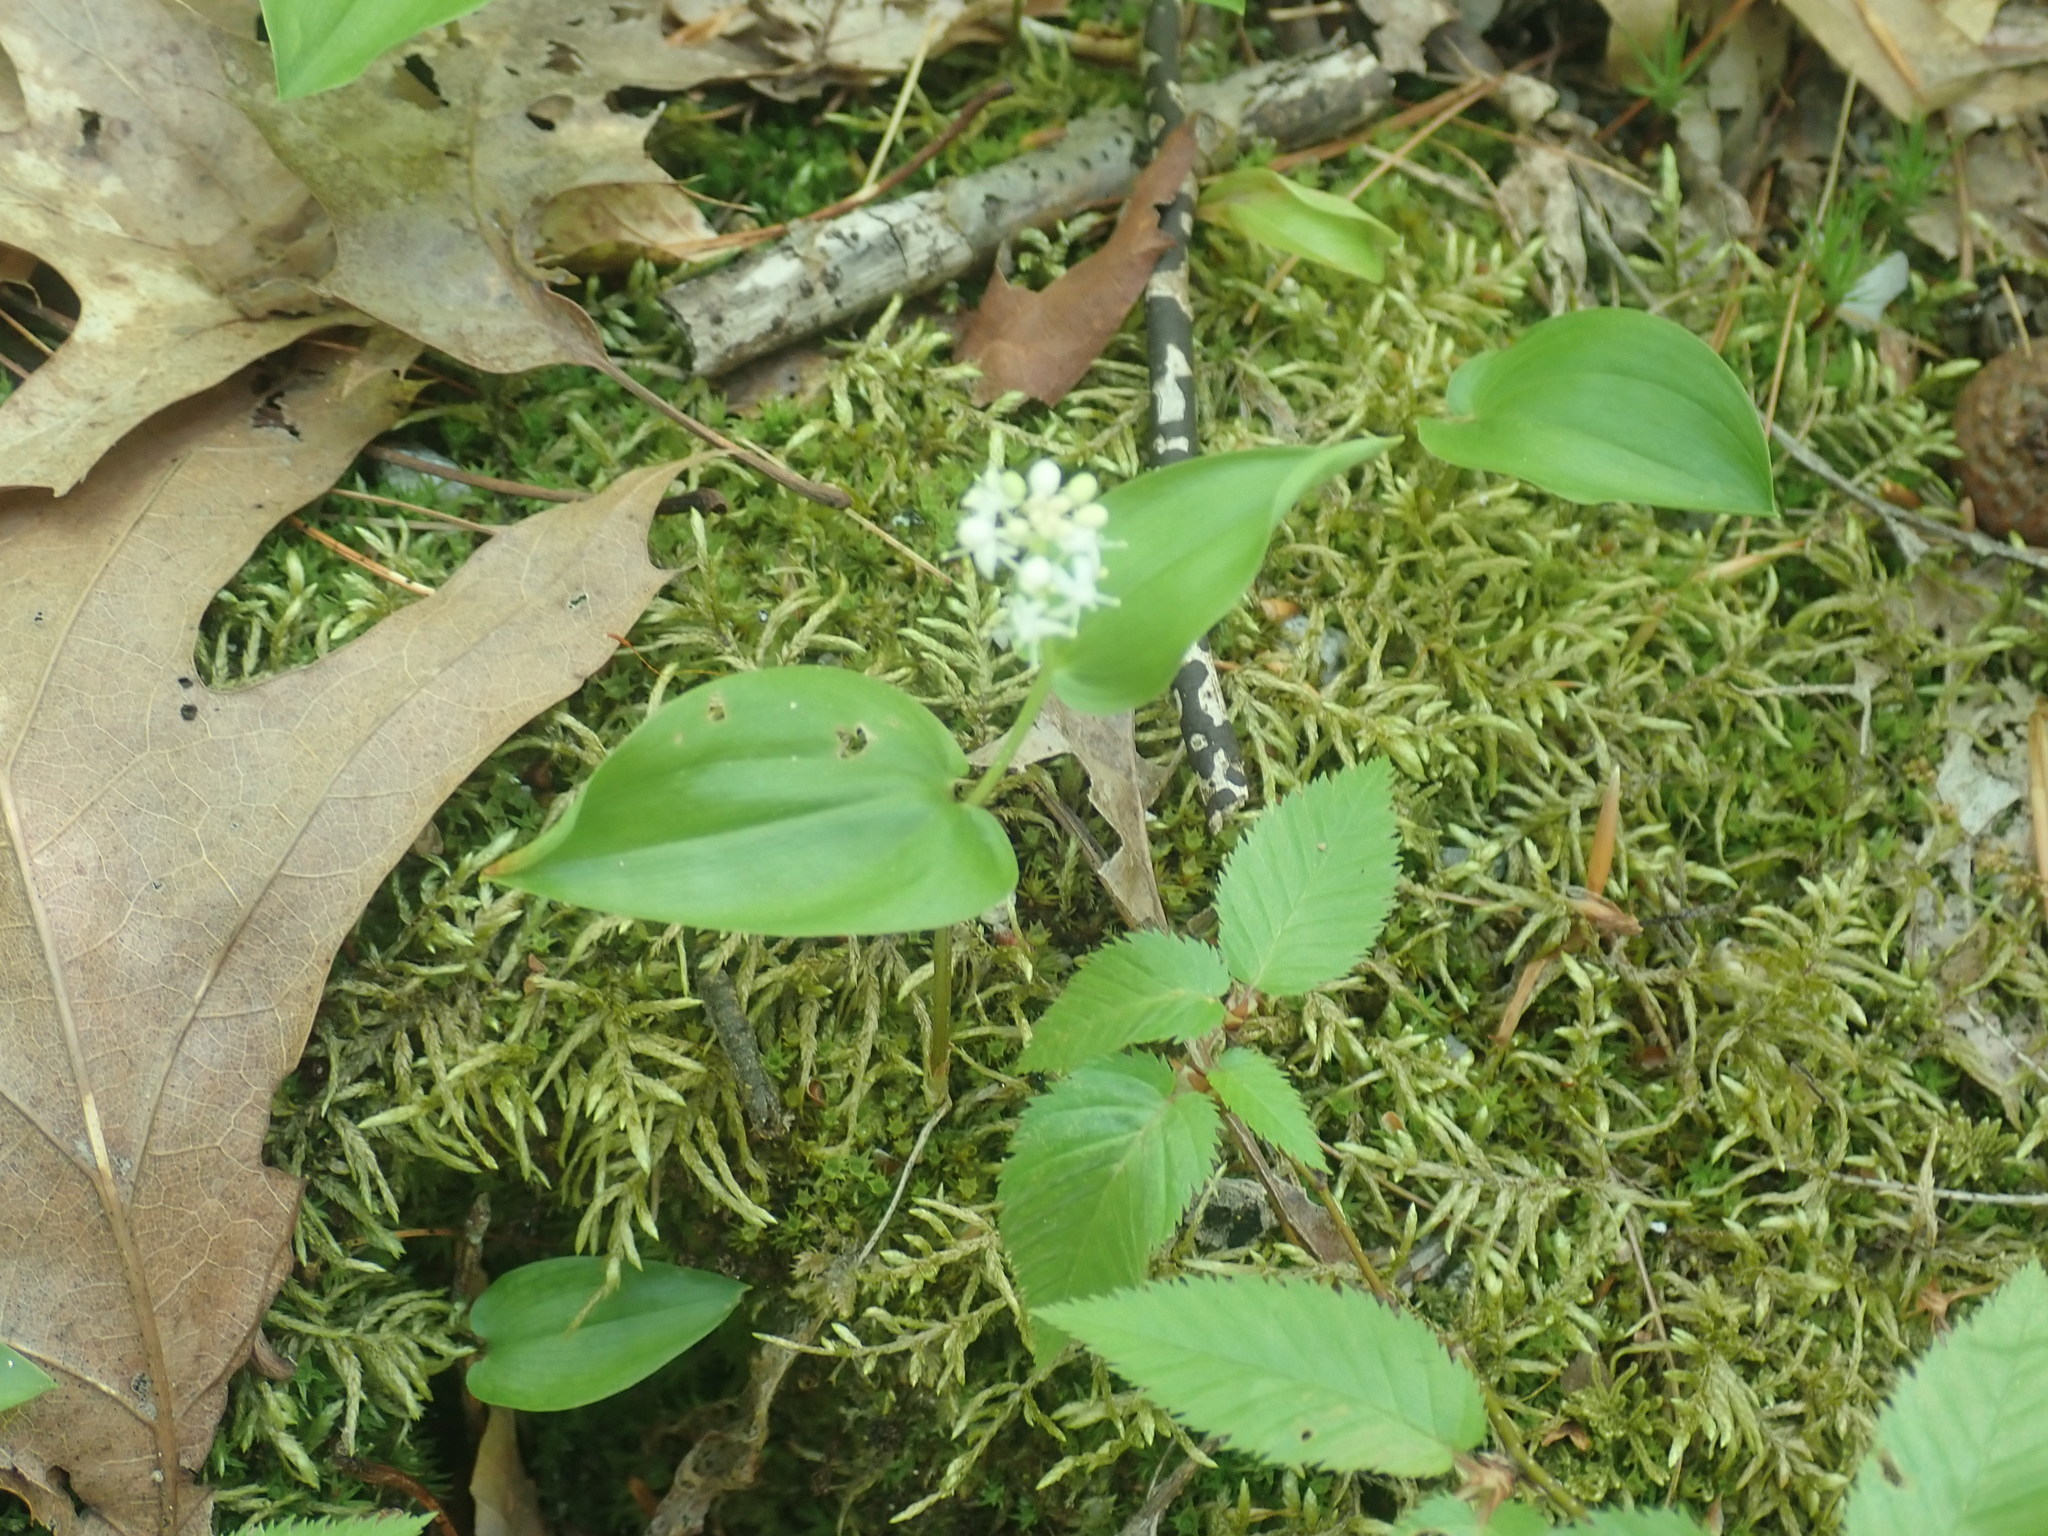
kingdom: Plantae
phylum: Tracheophyta
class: Liliopsida
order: Asparagales
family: Asparagaceae
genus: Maianthemum
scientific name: Maianthemum canadense
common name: False lily-of-the-valley
